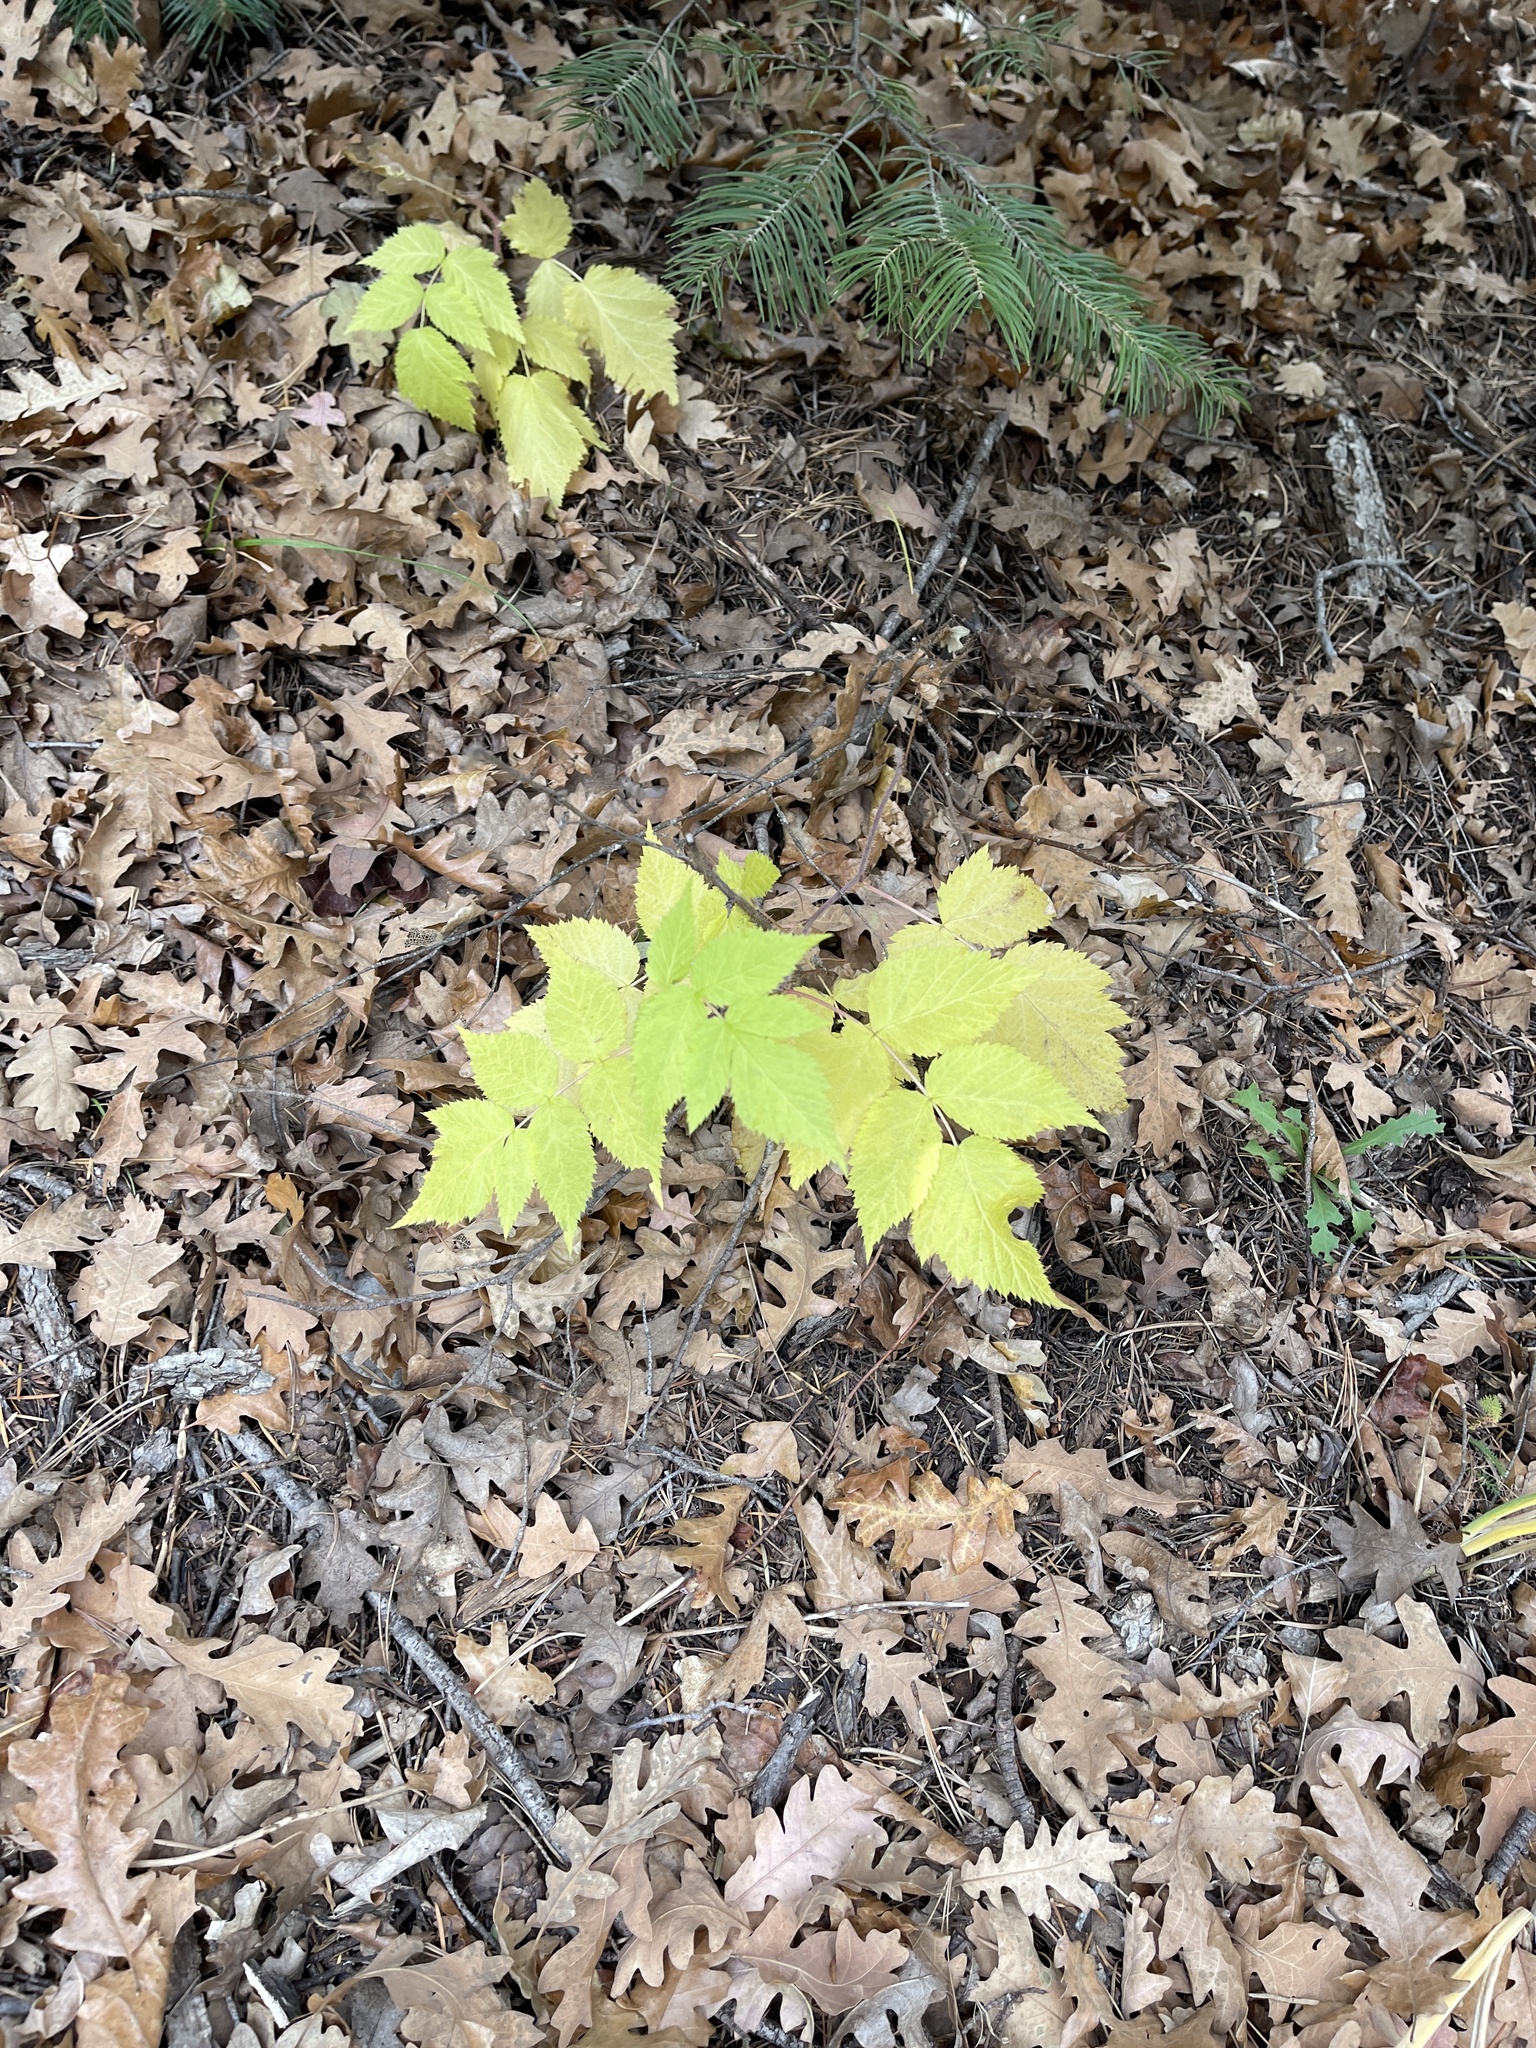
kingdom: Plantae
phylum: Tracheophyta
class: Magnoliopsida
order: Sapindales
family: Sapindaceae
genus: Acer
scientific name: Acer glabrum
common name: Rocky mountain maple
